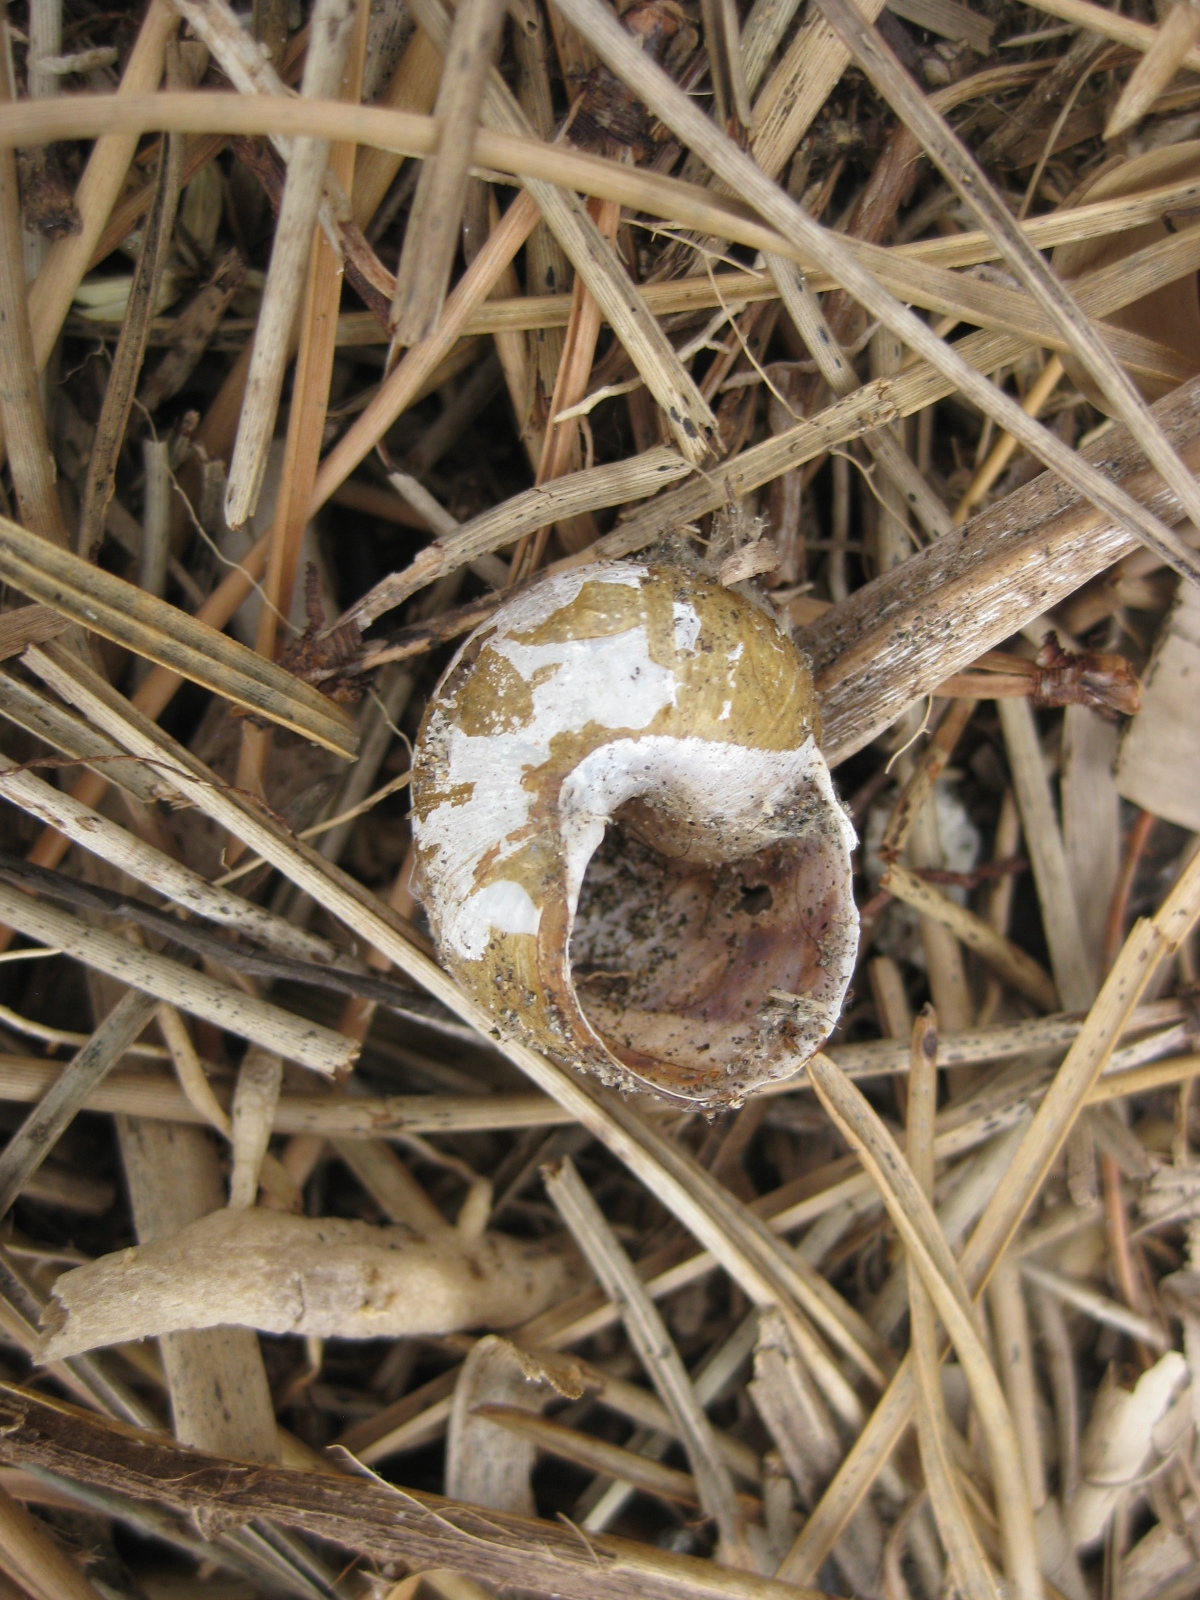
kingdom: Animalia
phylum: Mollusca
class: Gastropoda
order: Stylommatophora
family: Helicidae
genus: Cornu
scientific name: Cornu aspersum
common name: Brown garden snail
